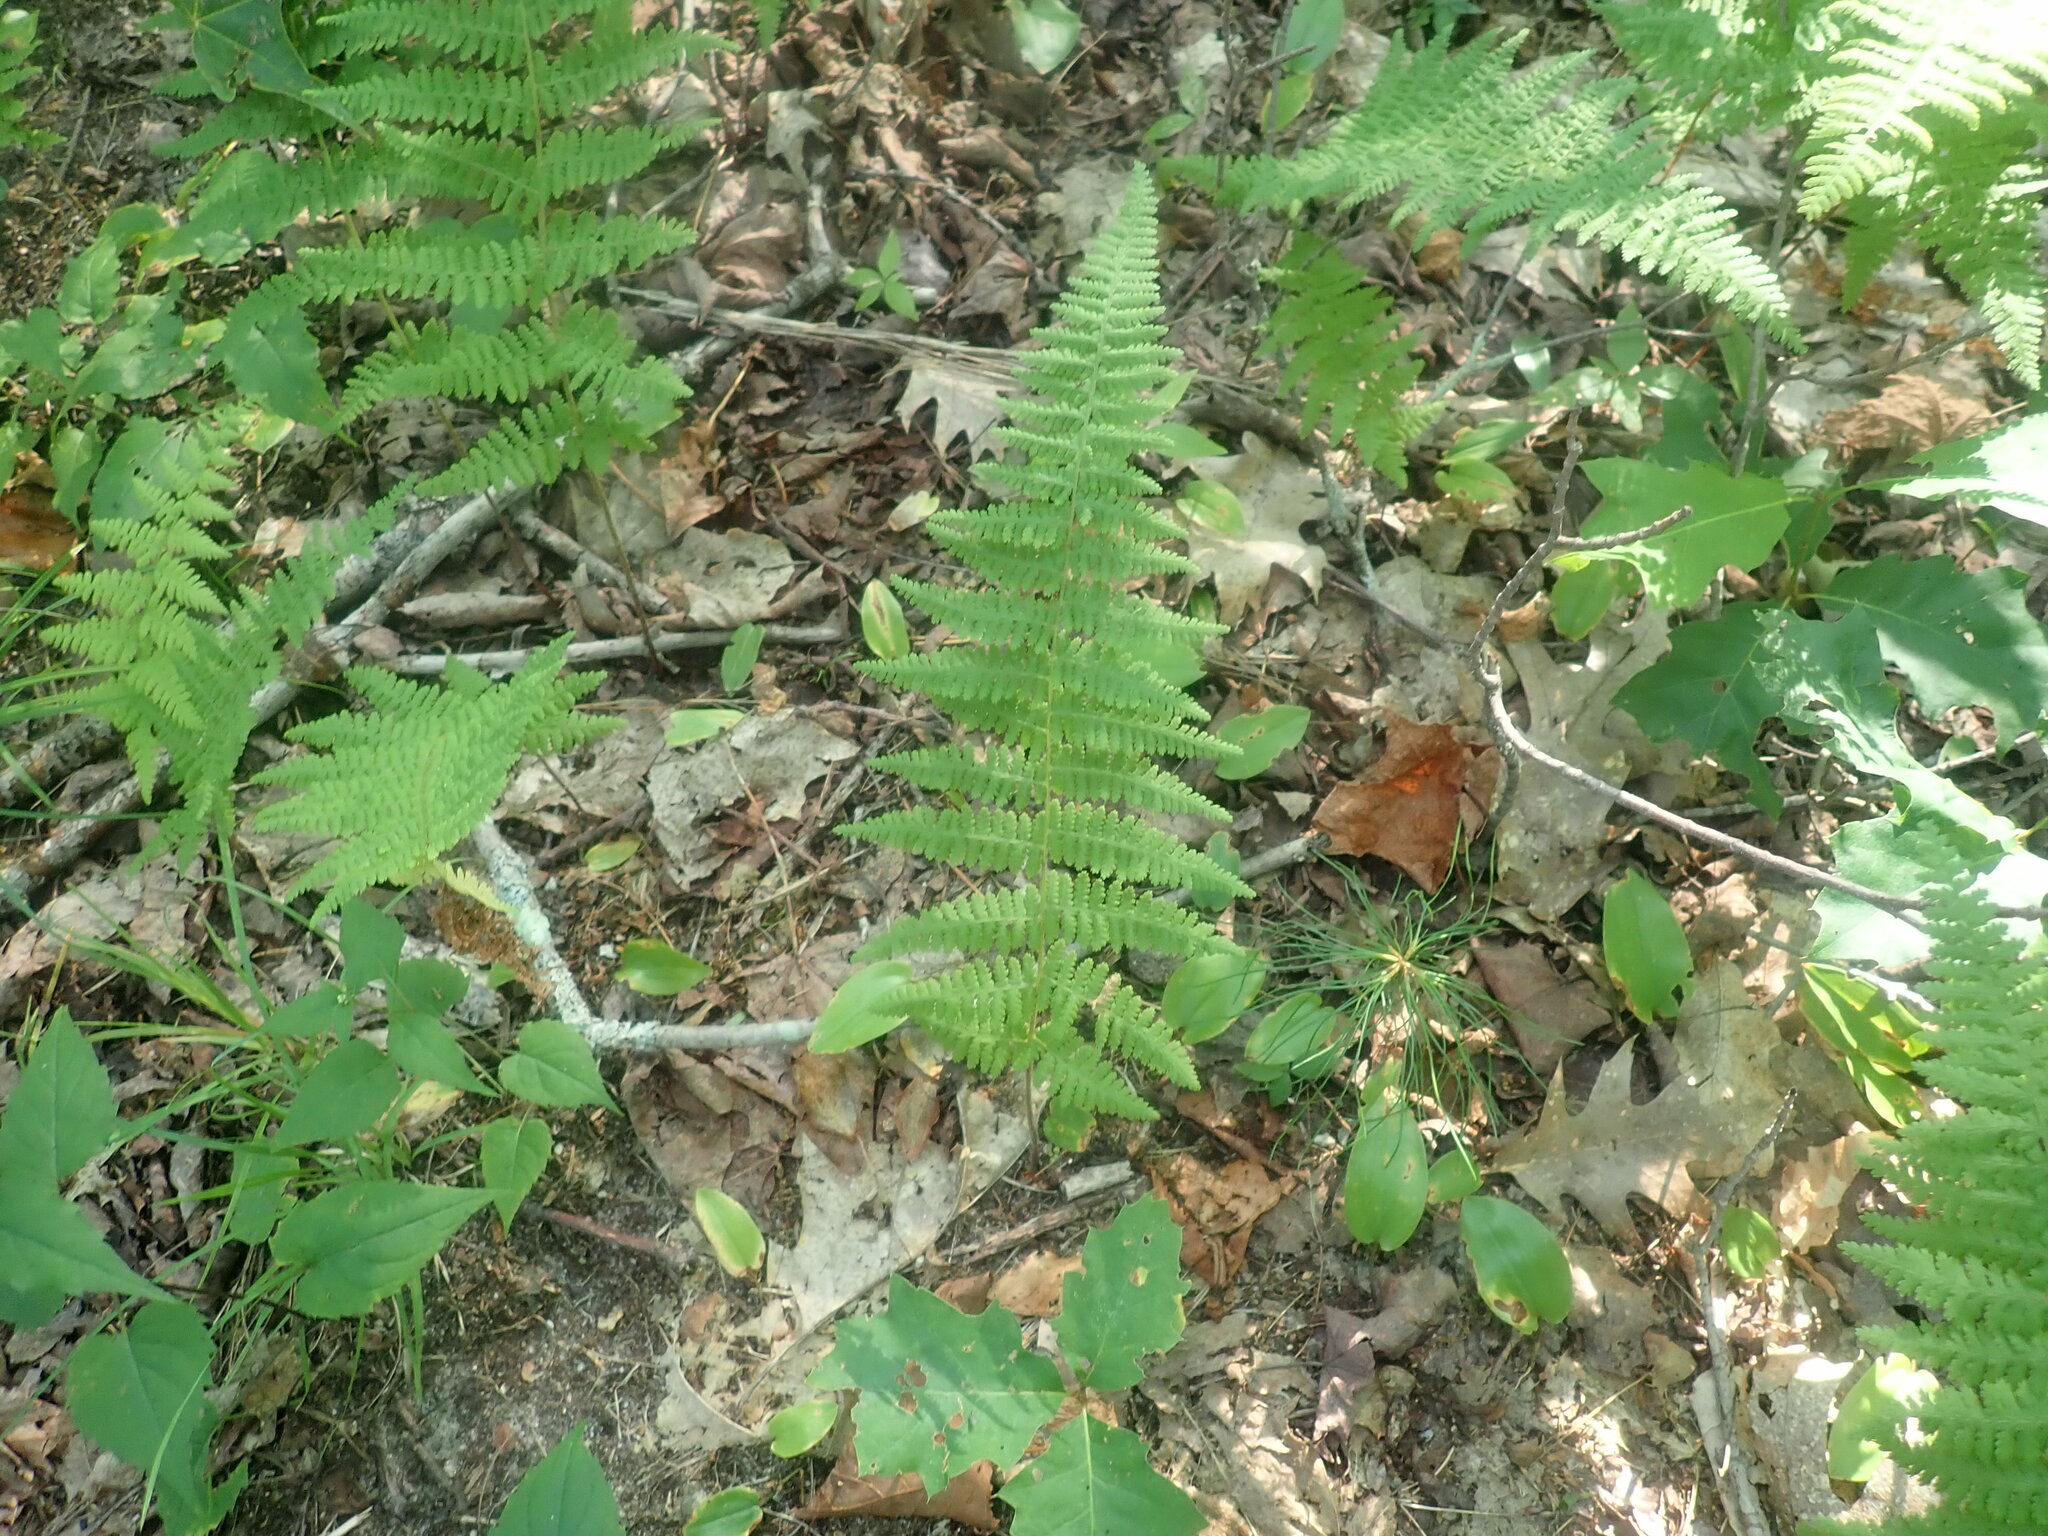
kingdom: Plantae
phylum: Tracheophyta
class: Polypodiopsida
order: Polypodiales
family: Dennstaedtiaceae
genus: Sitobolium
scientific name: Sitobolium punctilobum
